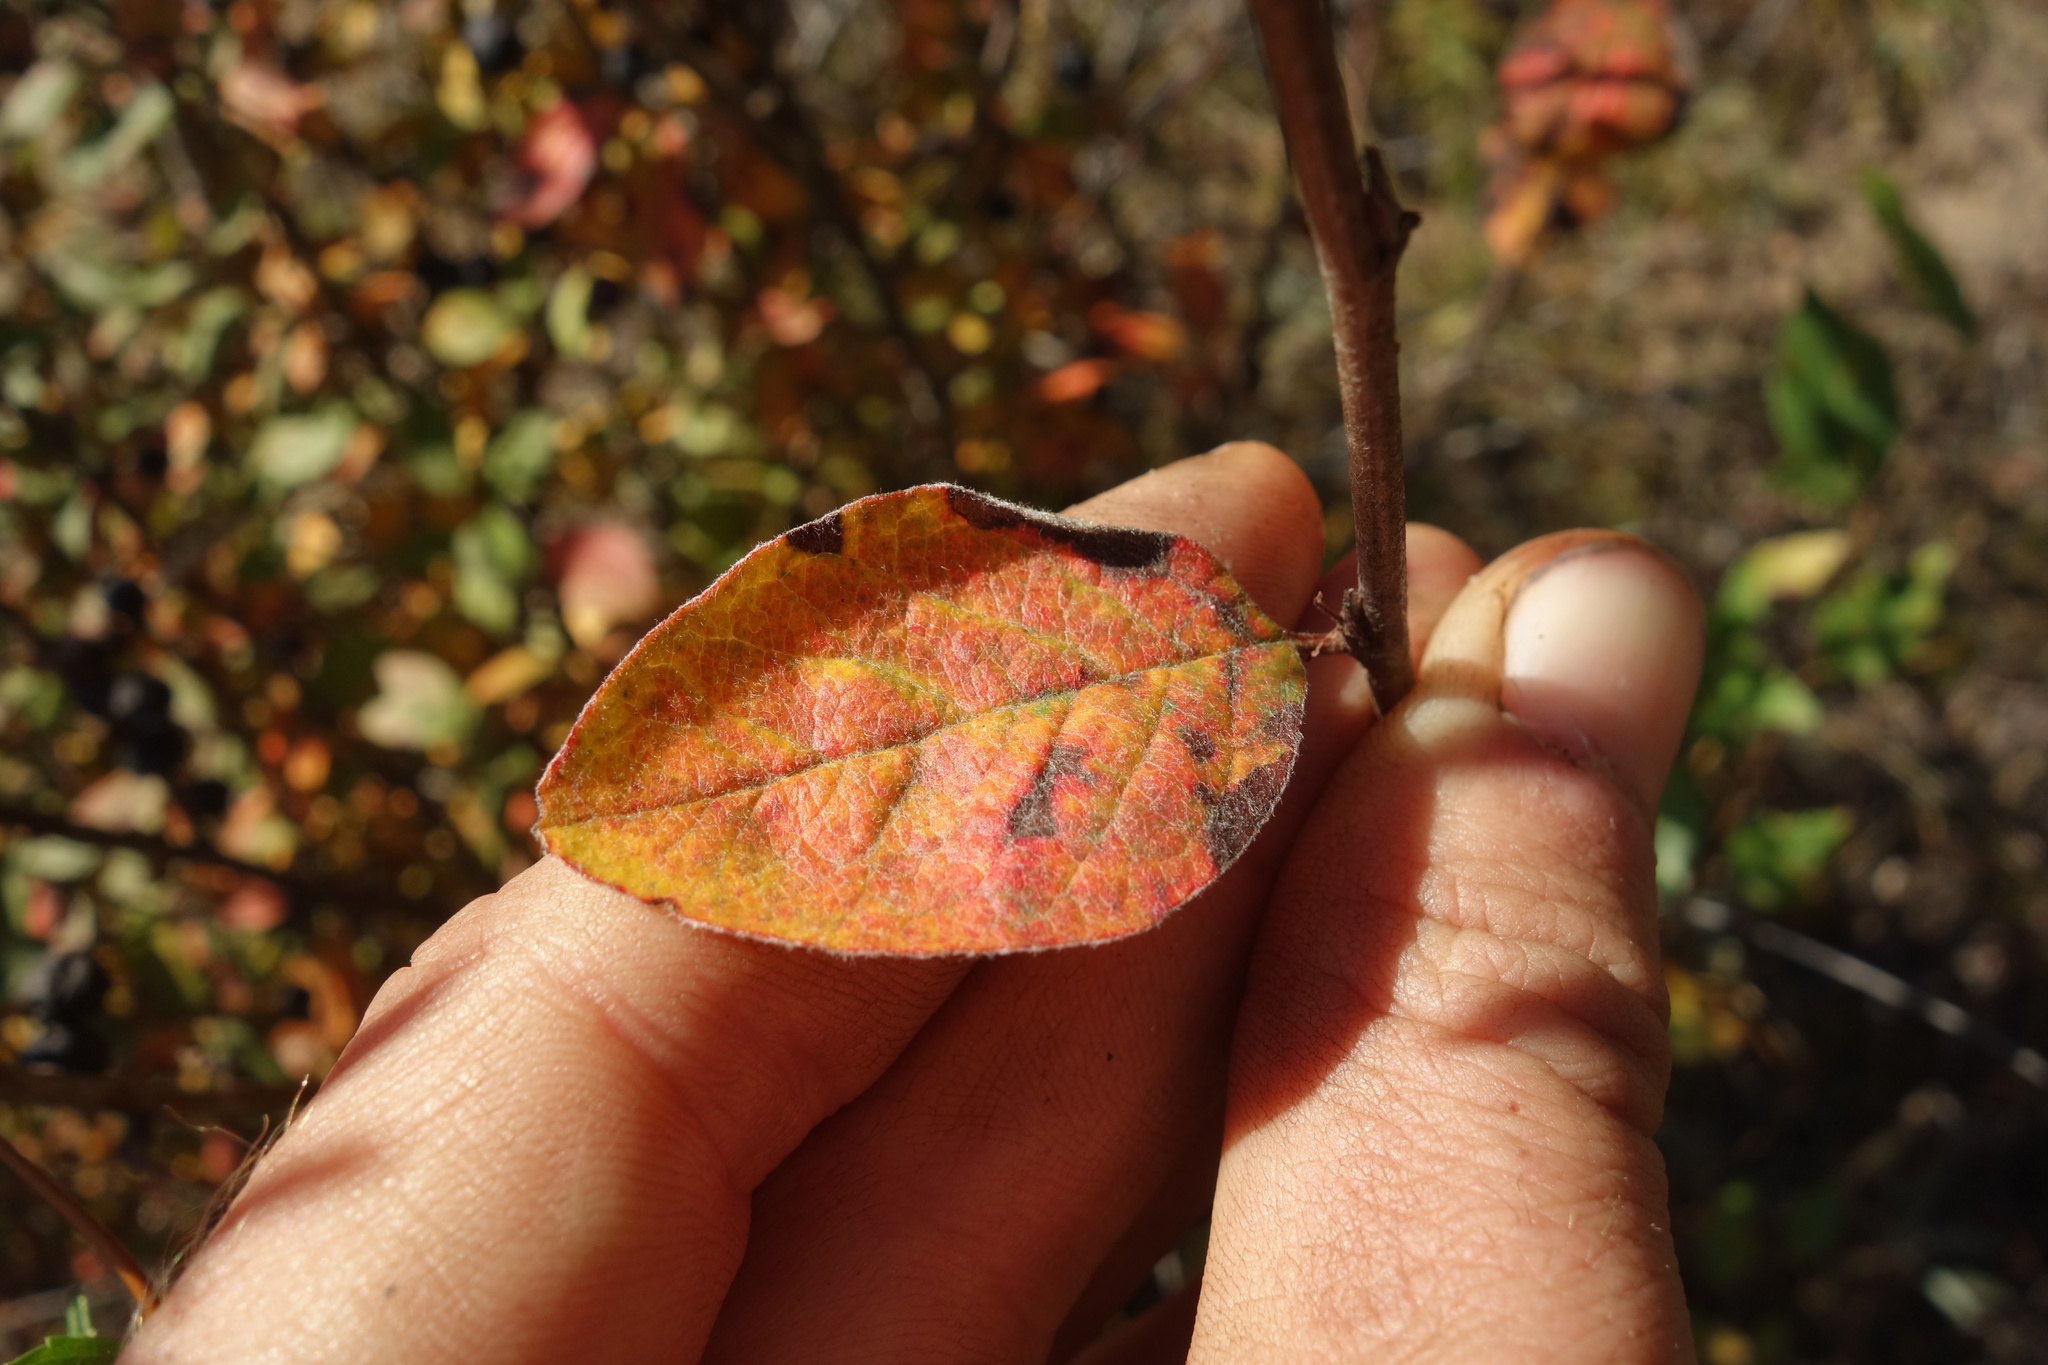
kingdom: Plantae
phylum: Tracheophyta
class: Magnoliopsida
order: Rosales
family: Rosaceae
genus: Cotoneaster
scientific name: Cotoneaster melanocarpus
